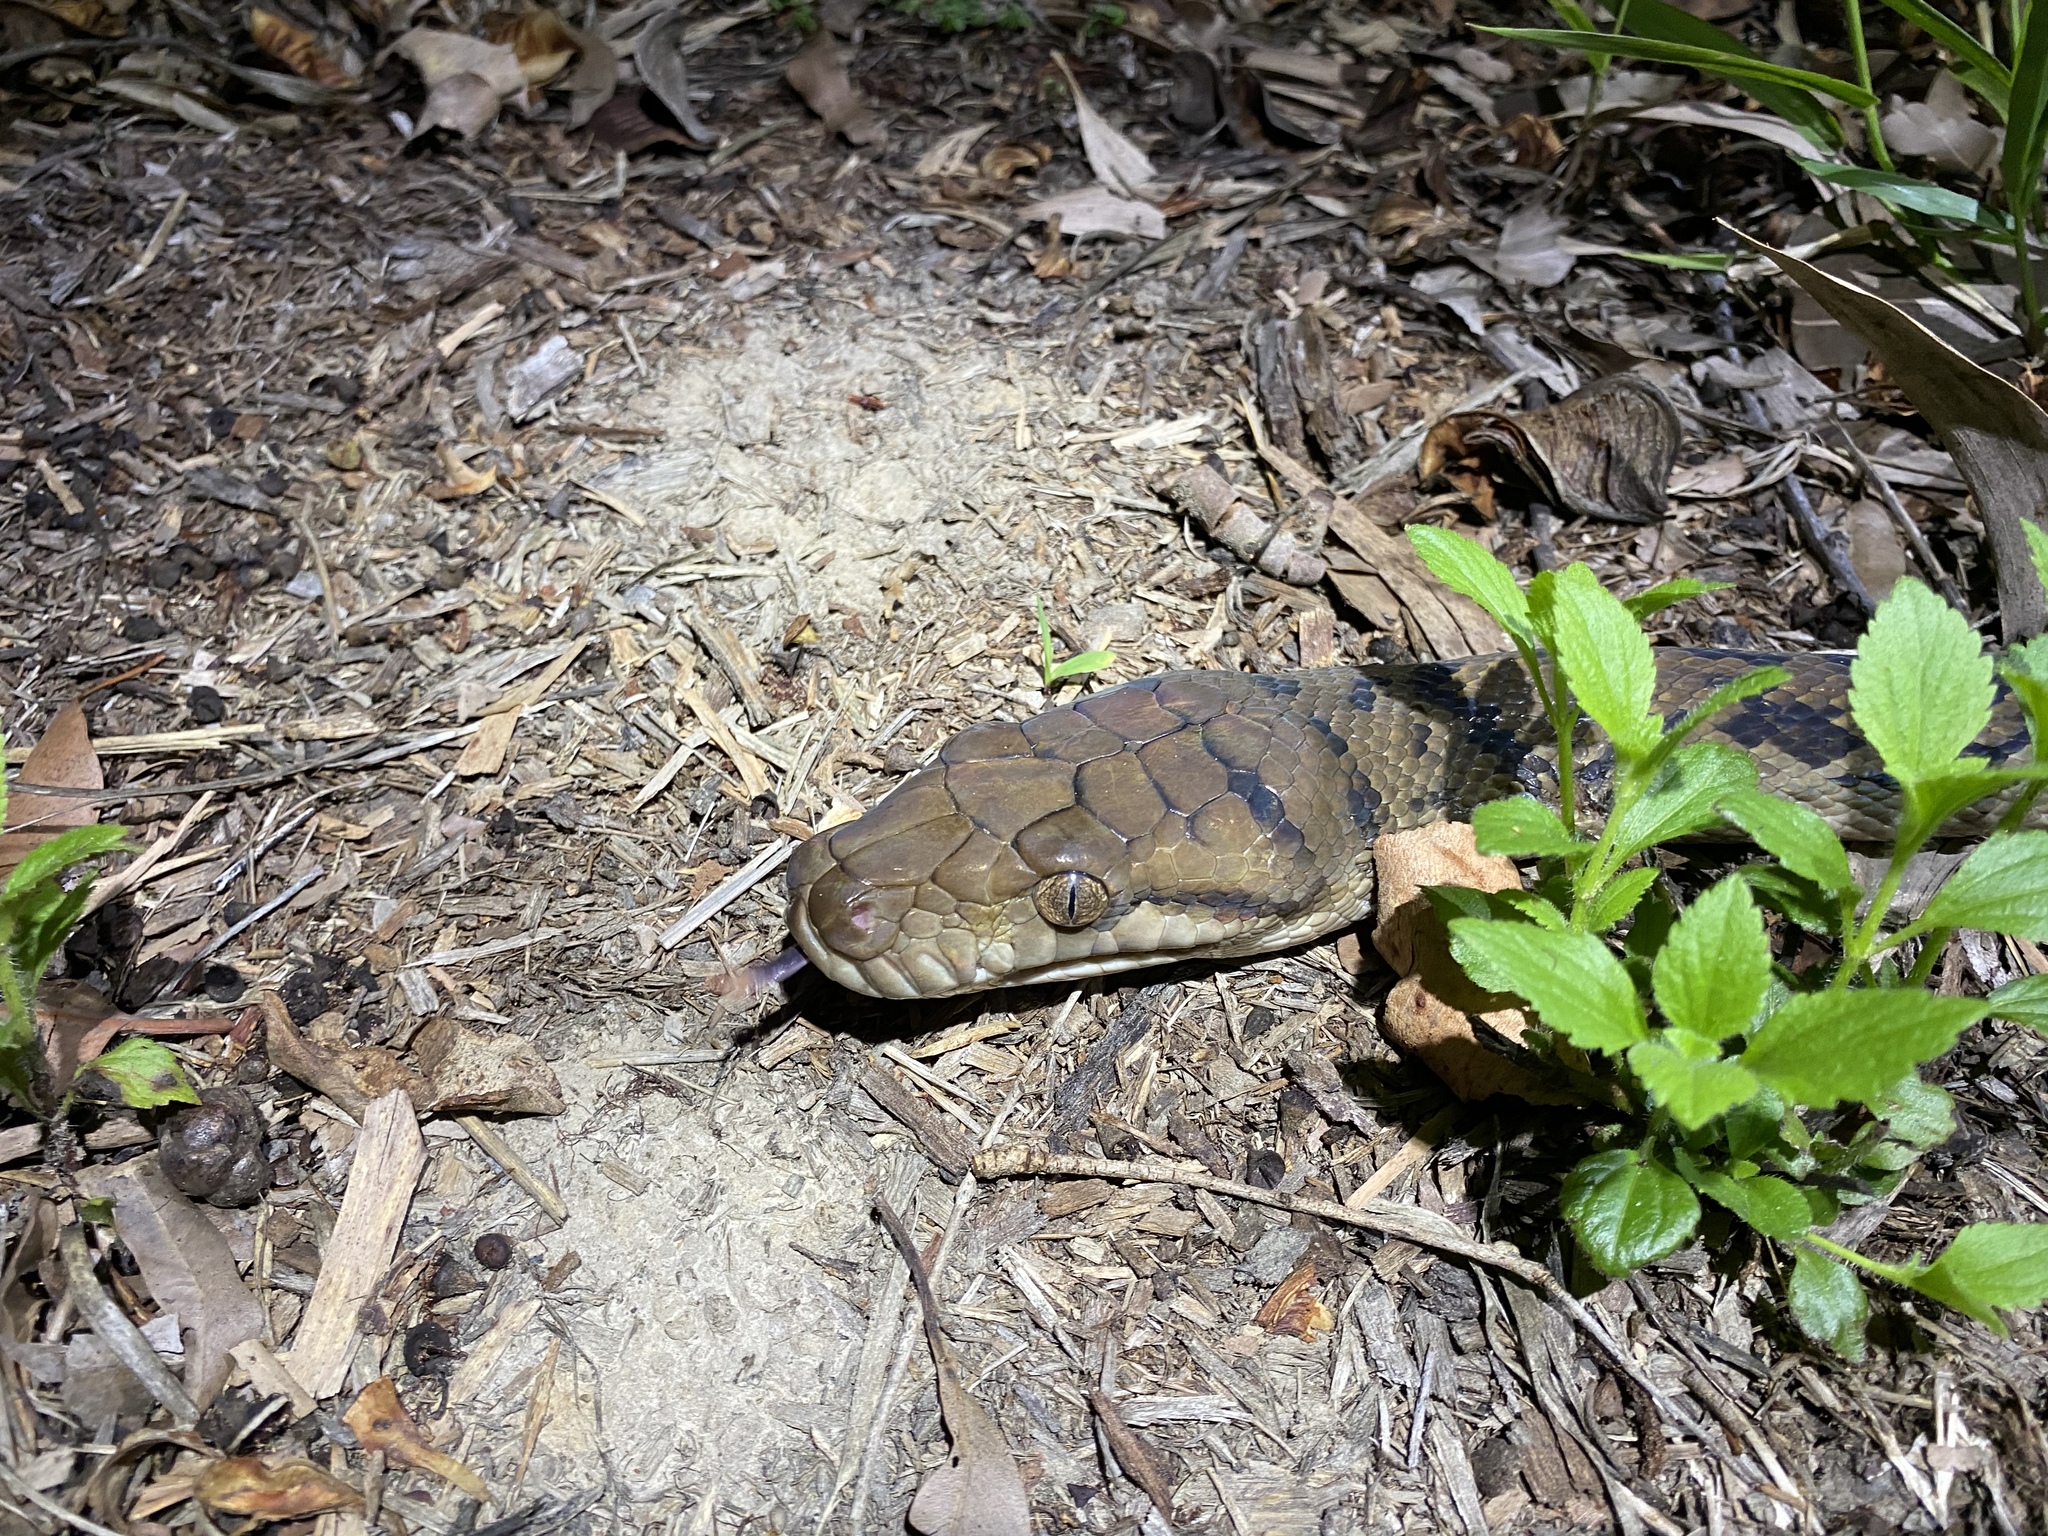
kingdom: Animalia
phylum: Chordata
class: Squamata
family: Pythonidae
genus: Simalia
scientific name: Simalia kinghorni
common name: Scrub python
